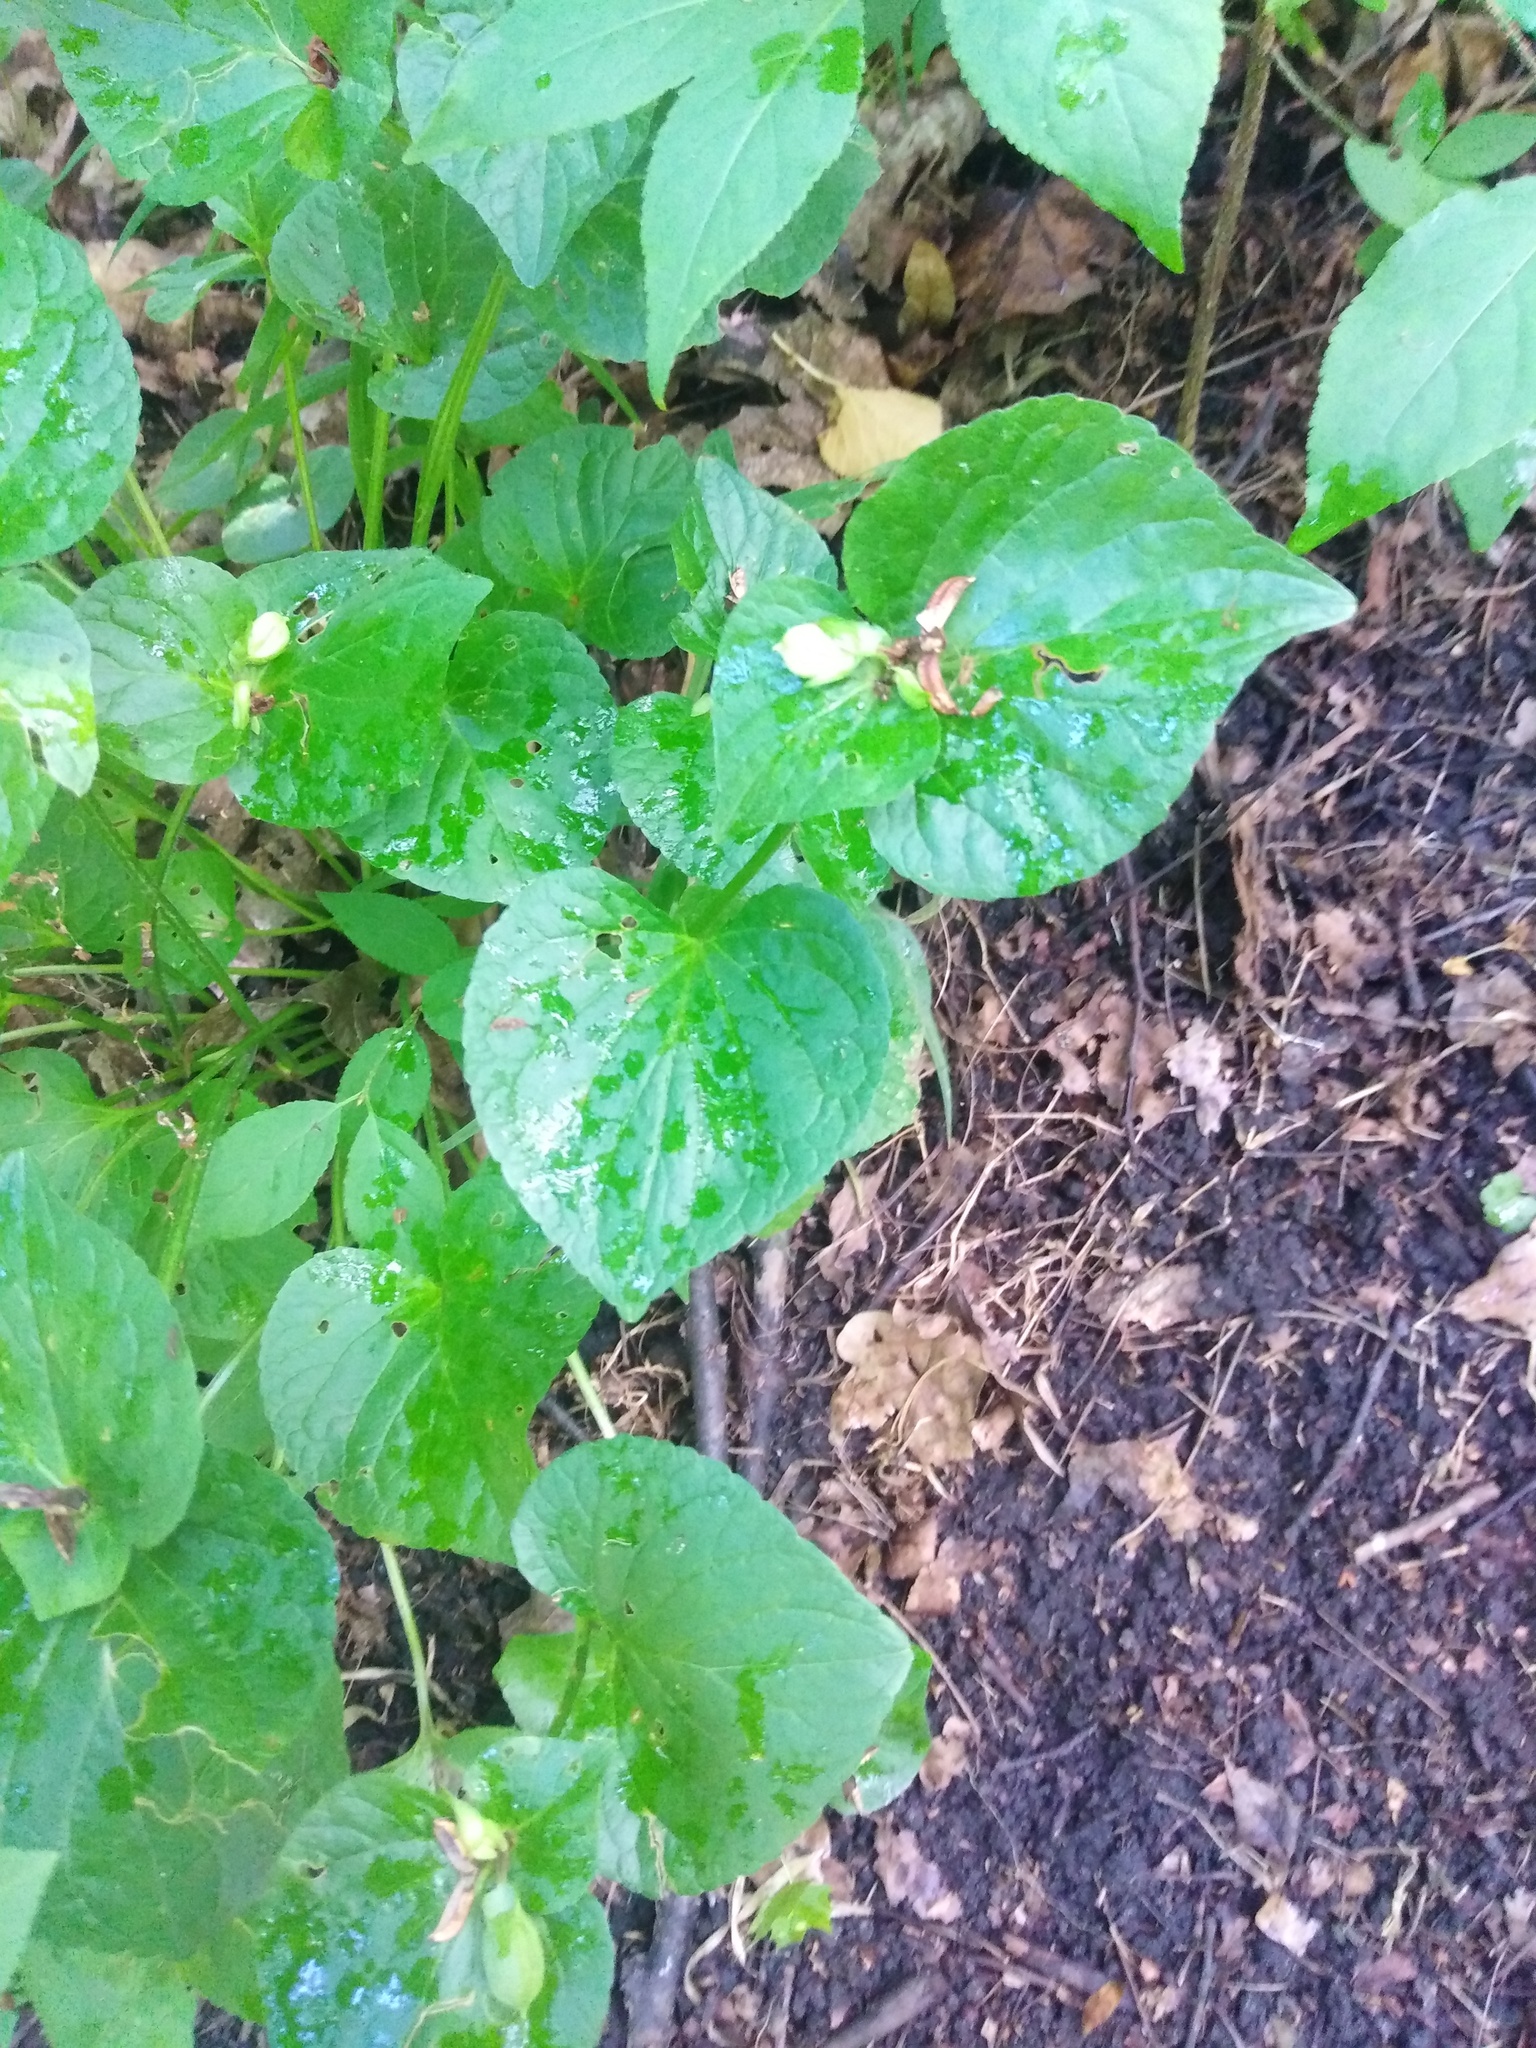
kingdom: Plantae
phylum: Tracheophyta
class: Magnoliopsida
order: Malpighiales
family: Violaceae
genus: Viola
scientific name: Viola mirabilis
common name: Wonder violet
